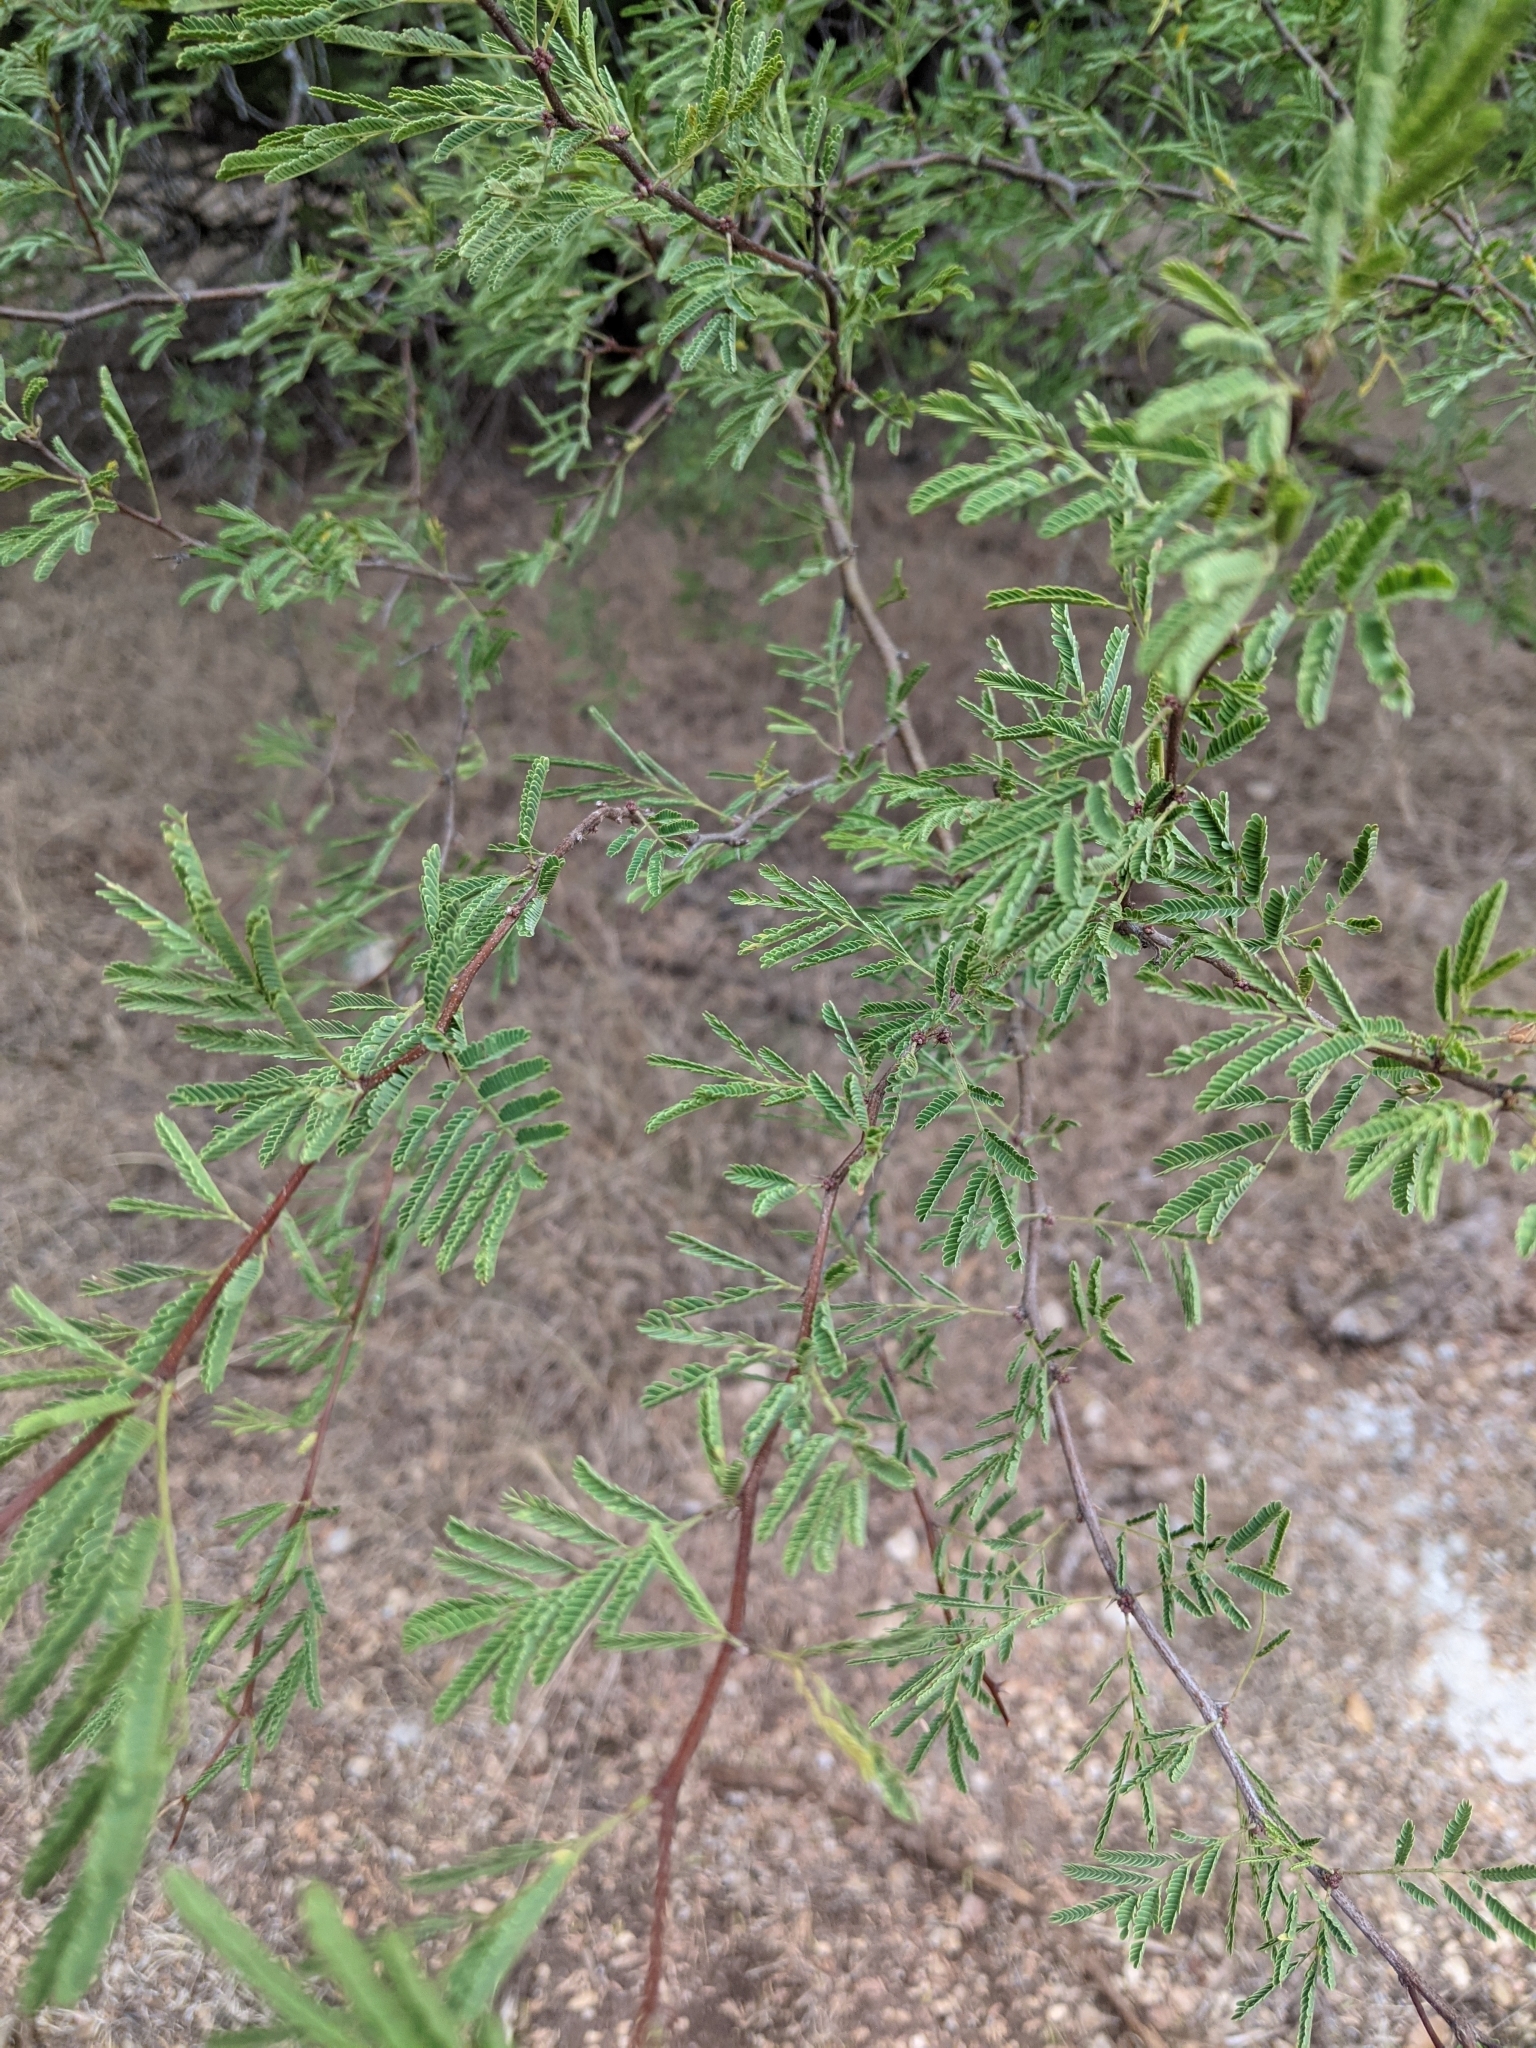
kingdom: Plantae
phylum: Tracheophyta
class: Magnoliopsida
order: Fabales
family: Fabaceae
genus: Vachellia
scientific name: Vachellia farnesiana
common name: Sweet acacia
